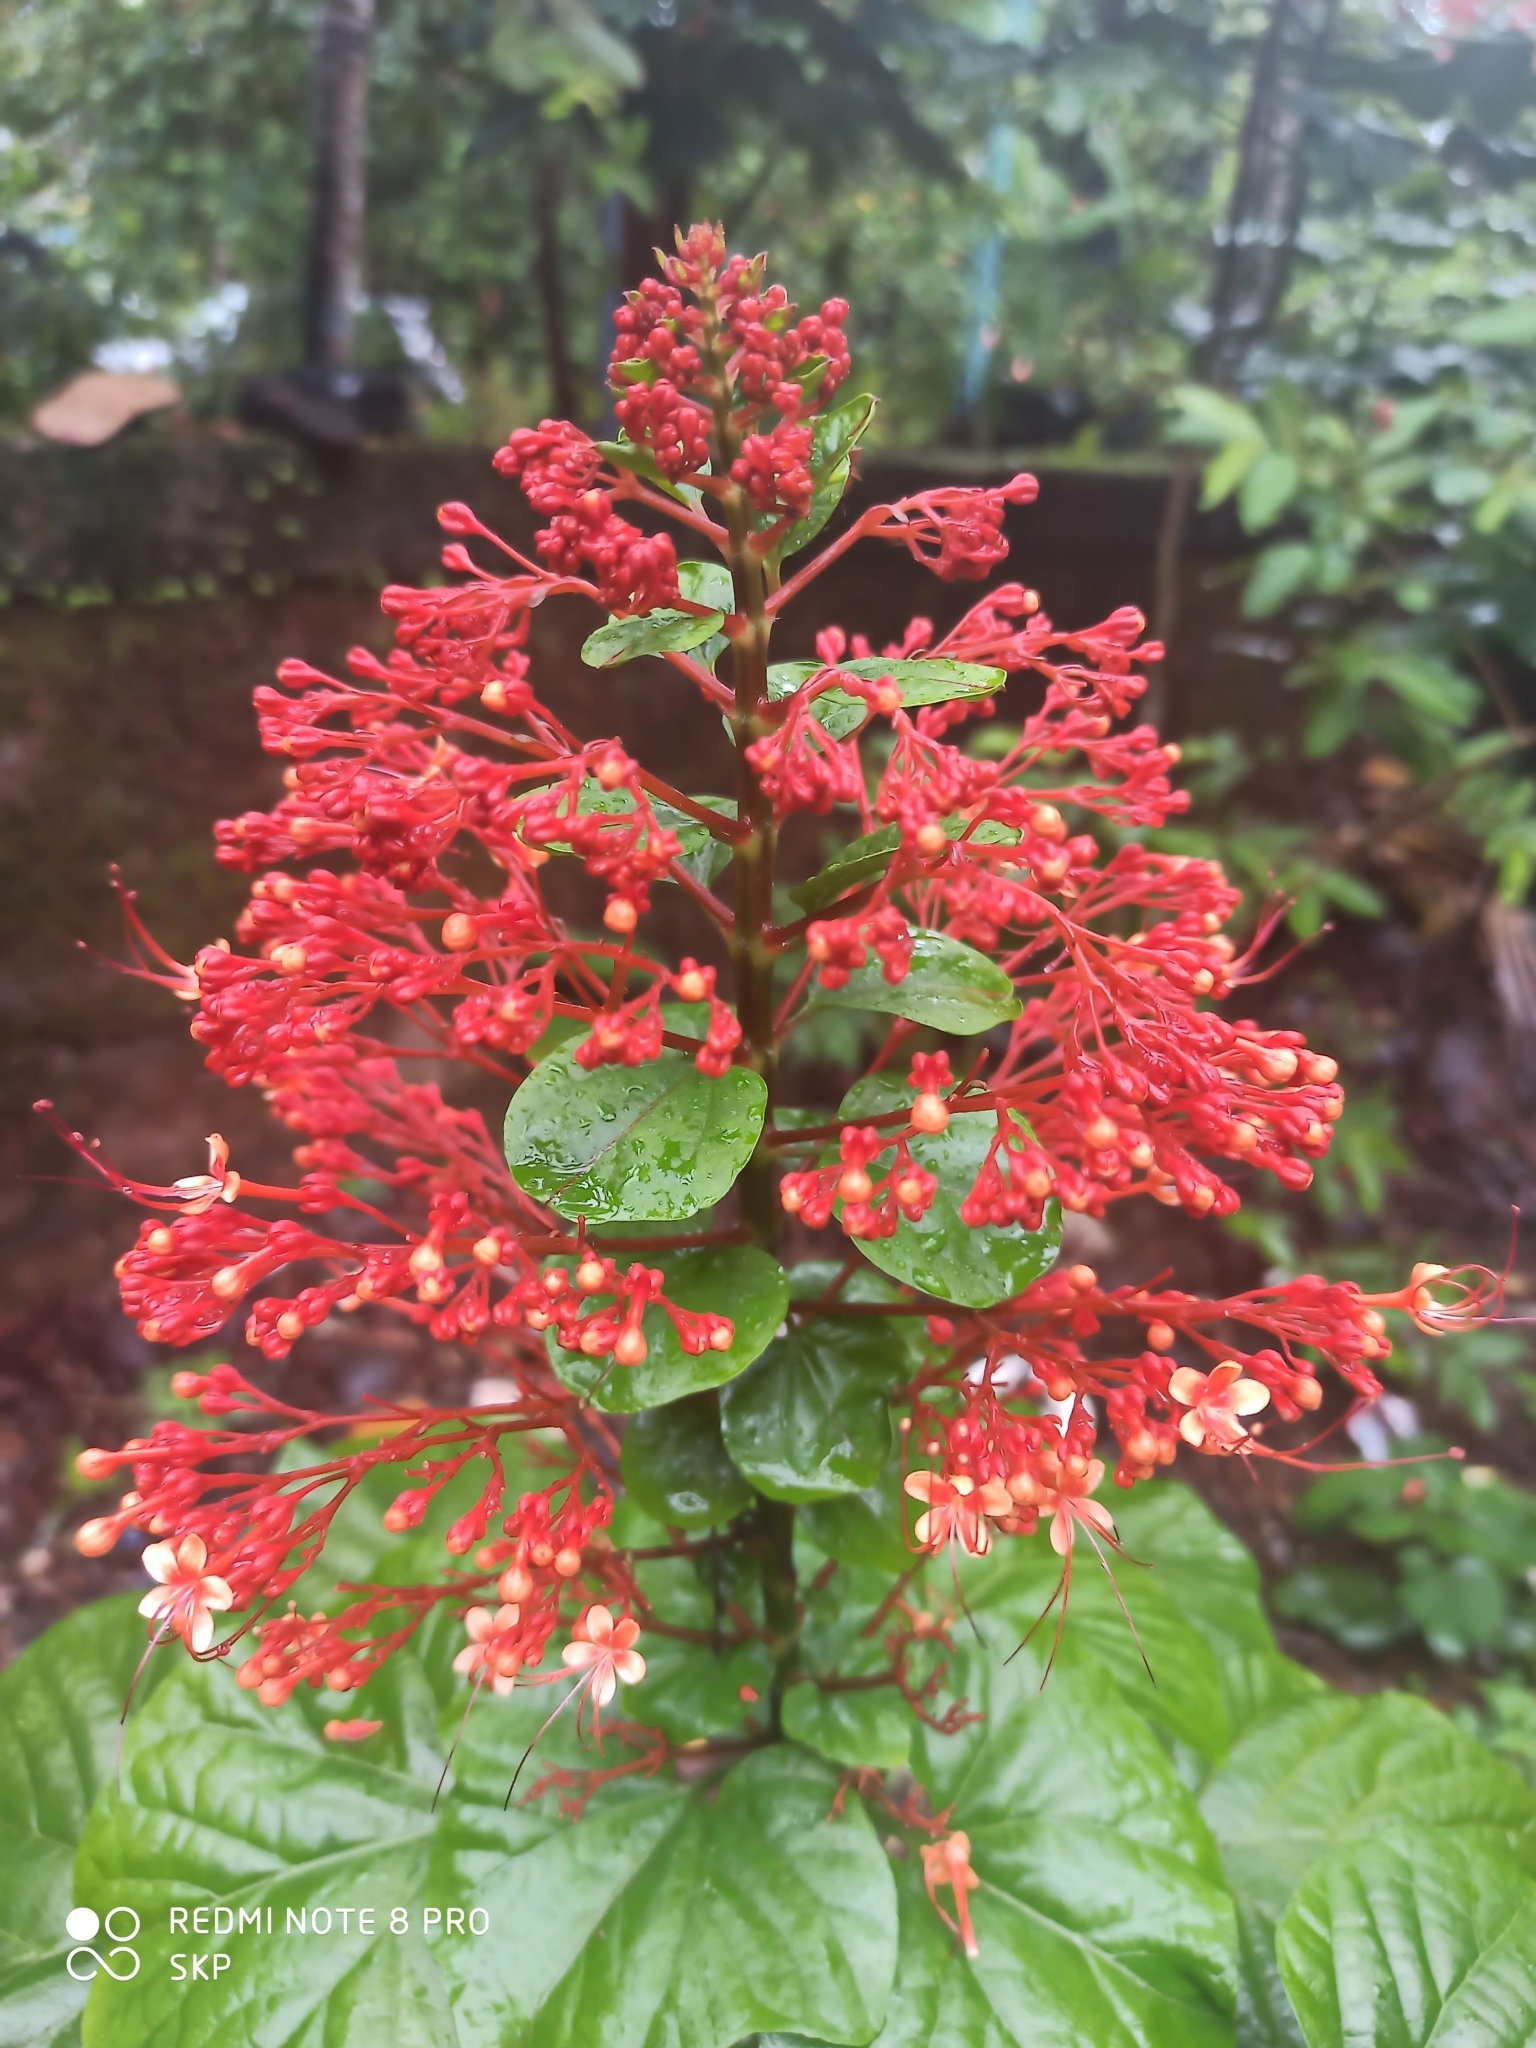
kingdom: Plantae
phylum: Tracheophyta
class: Magnoliopsida
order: Lamiales
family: Lamiaceae
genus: Clerodendrum
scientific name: Clerodendrum paniculatum
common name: Pagoda-flower
